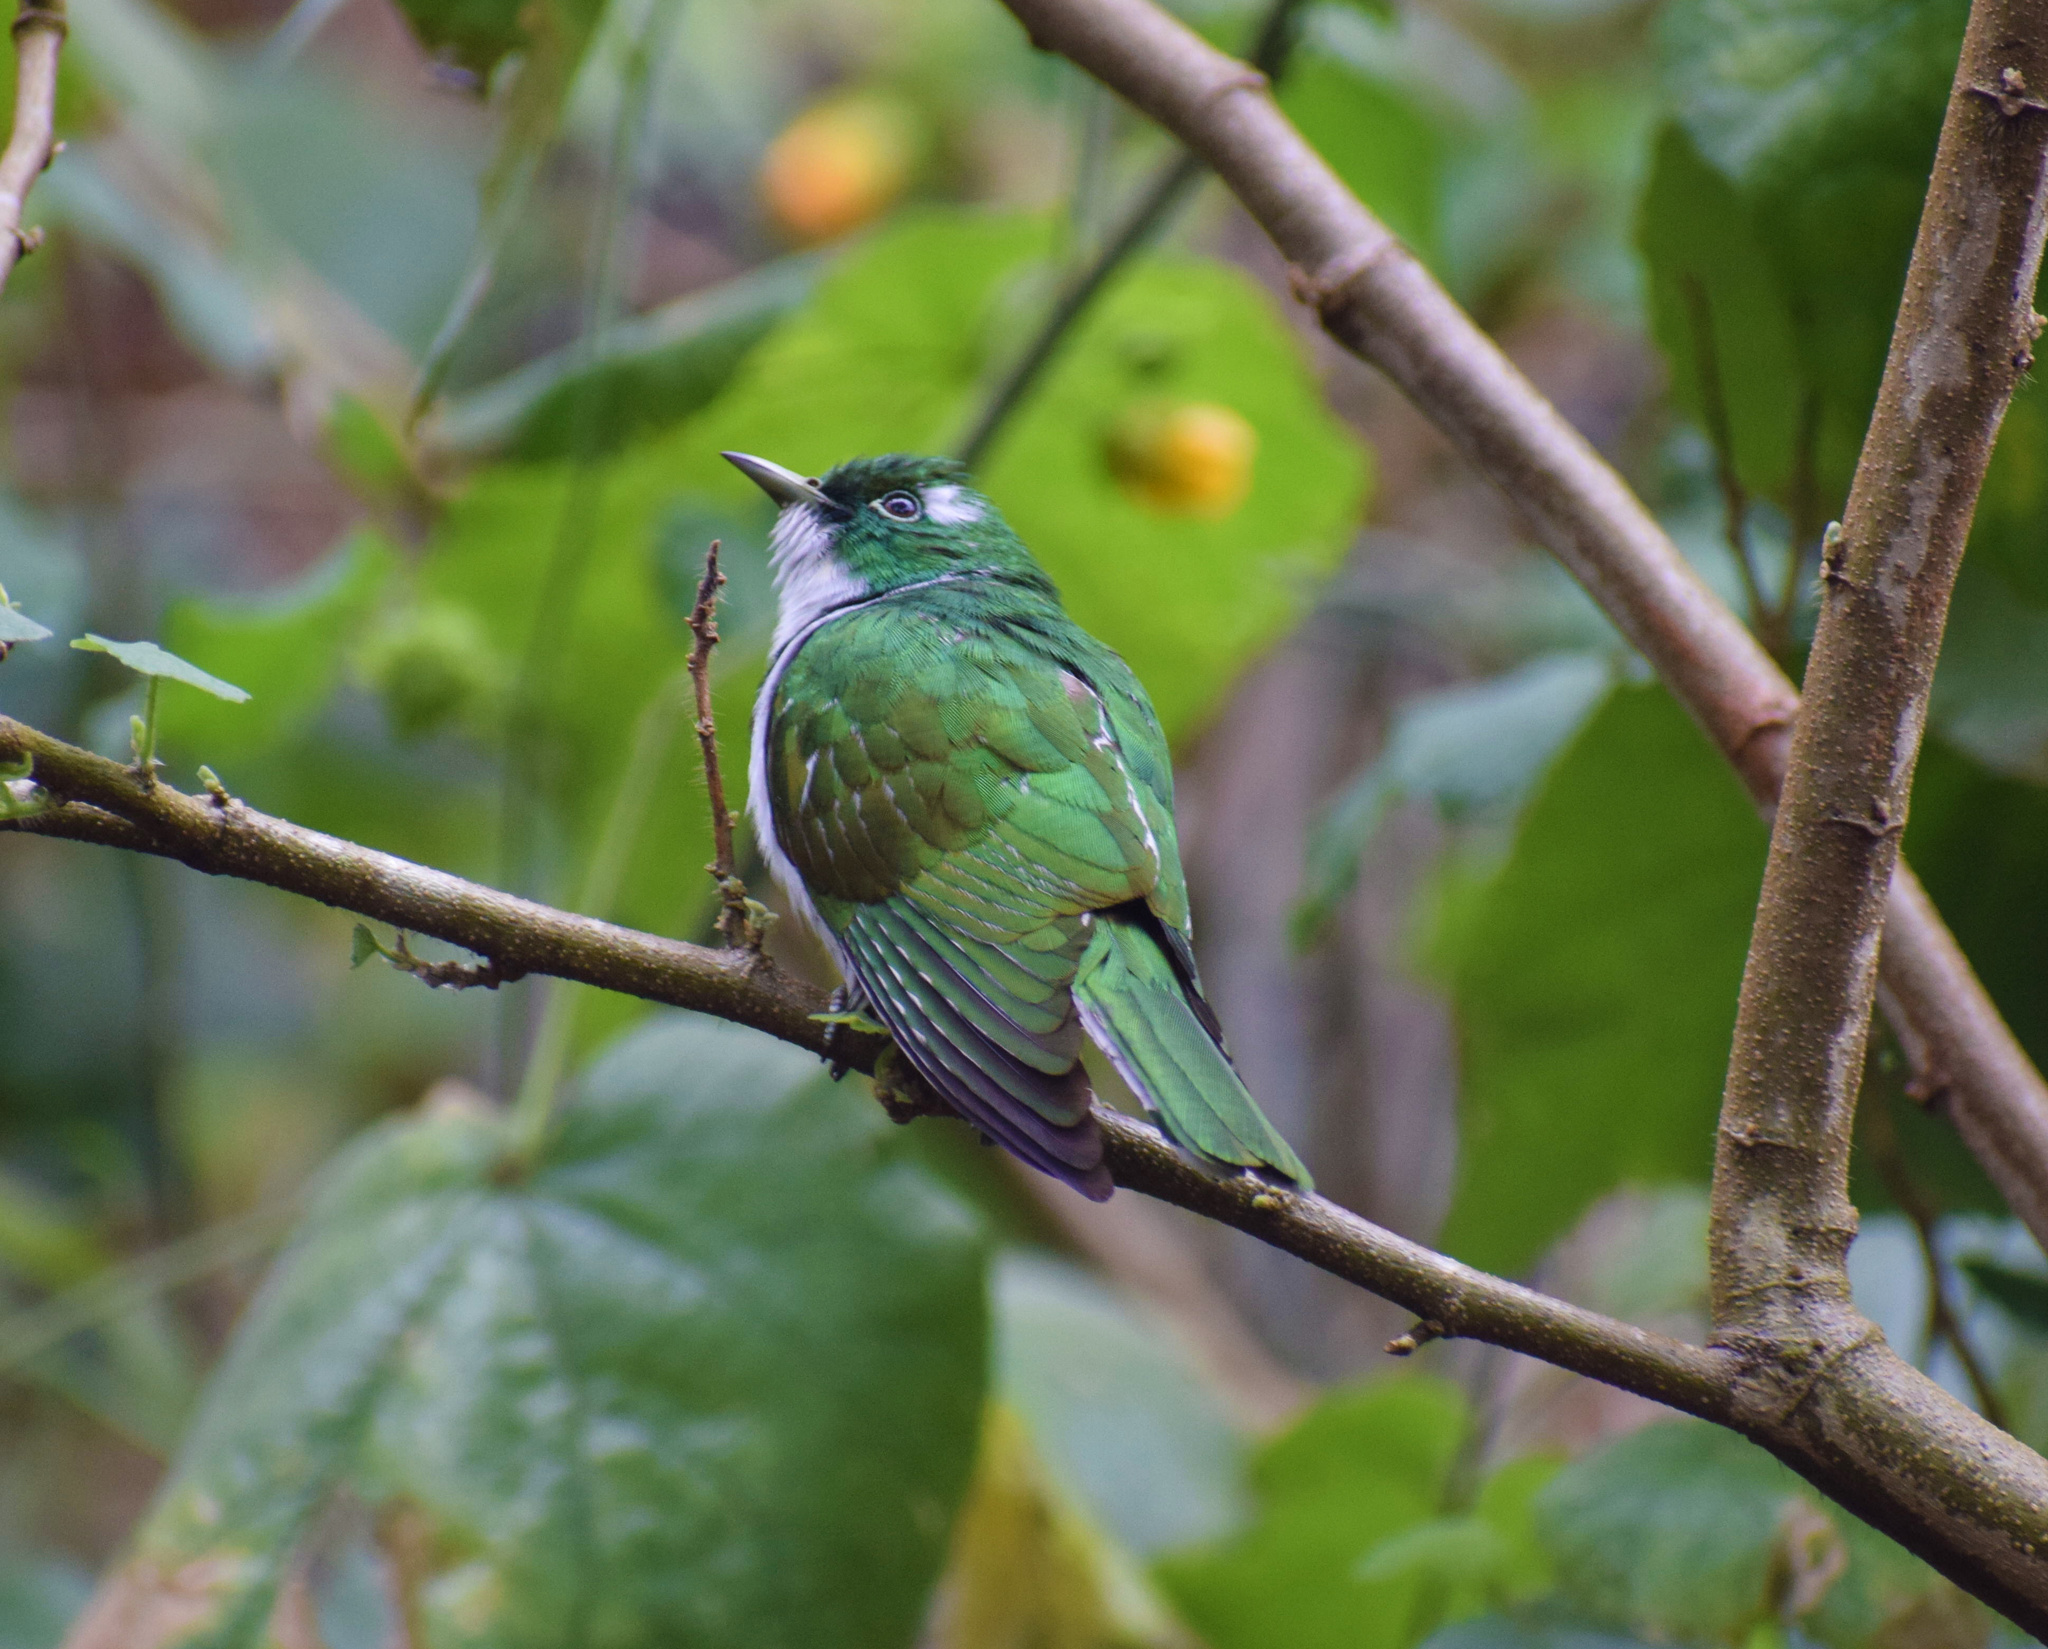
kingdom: Animalia
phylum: Chordata
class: Aves
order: Cuculiformes
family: Cuculidae
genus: Chrysococcyx
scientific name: Chrysococcyx klaas
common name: Klaas's cuckoo
